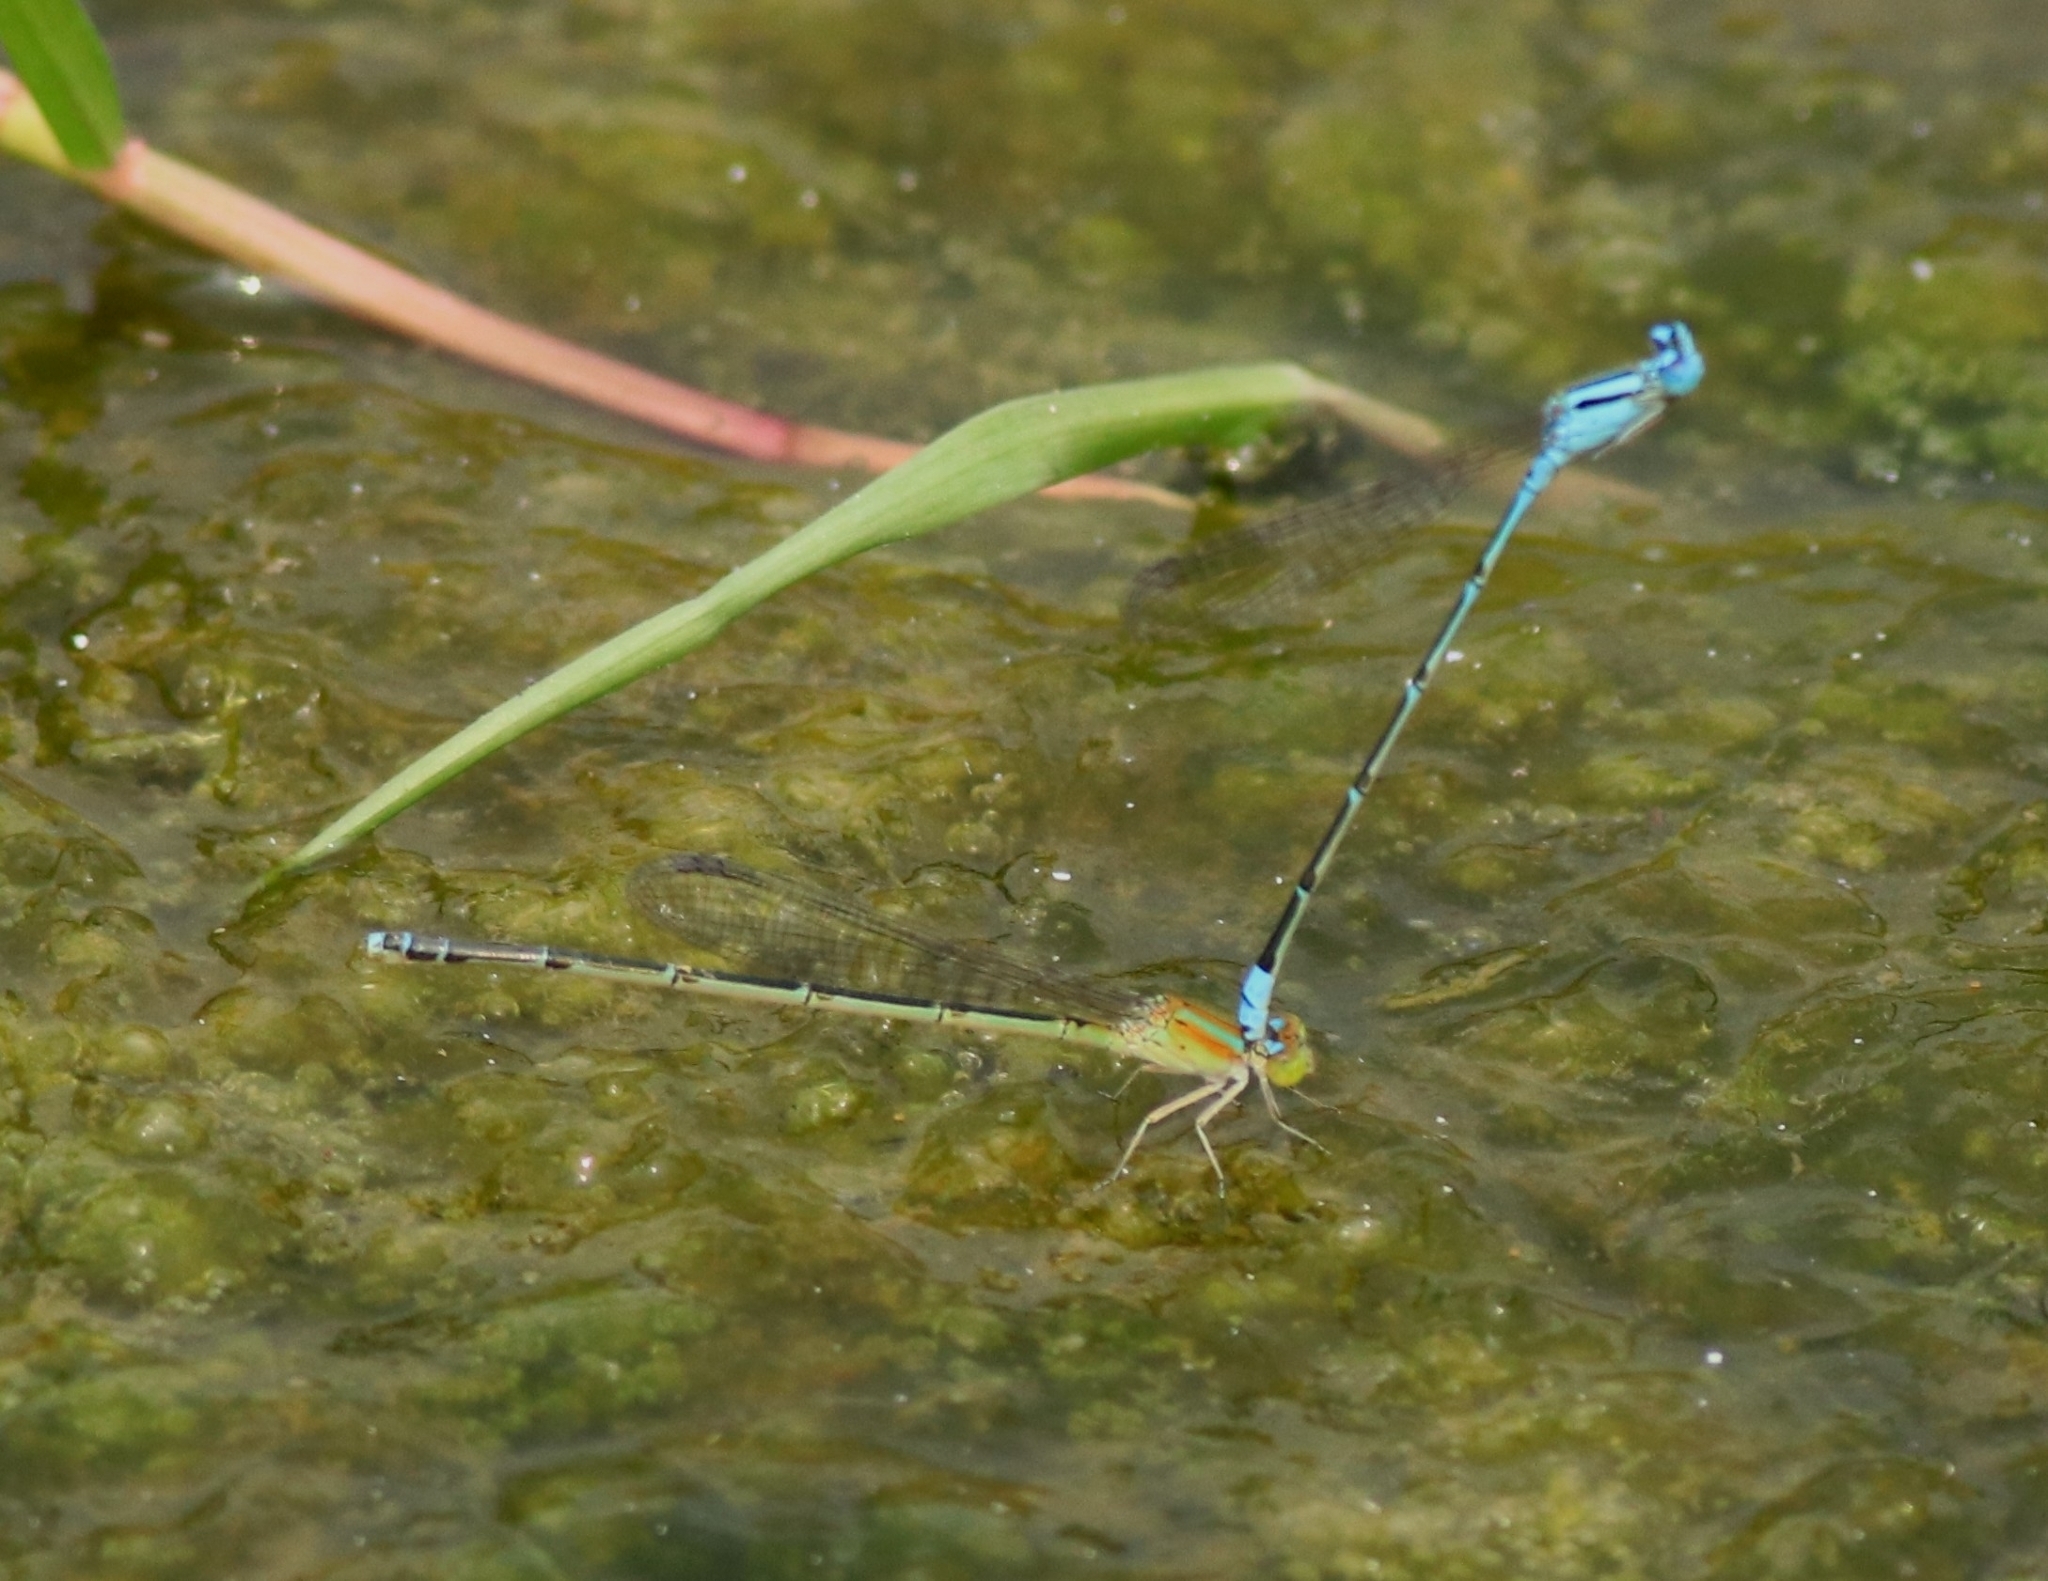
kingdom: Animalia
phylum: Arthropoda
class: Insecta
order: Odonata
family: Coenagrionidae
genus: Pseudagrion
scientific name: Pseudagrion microcephalum
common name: Blue riverdamsel
